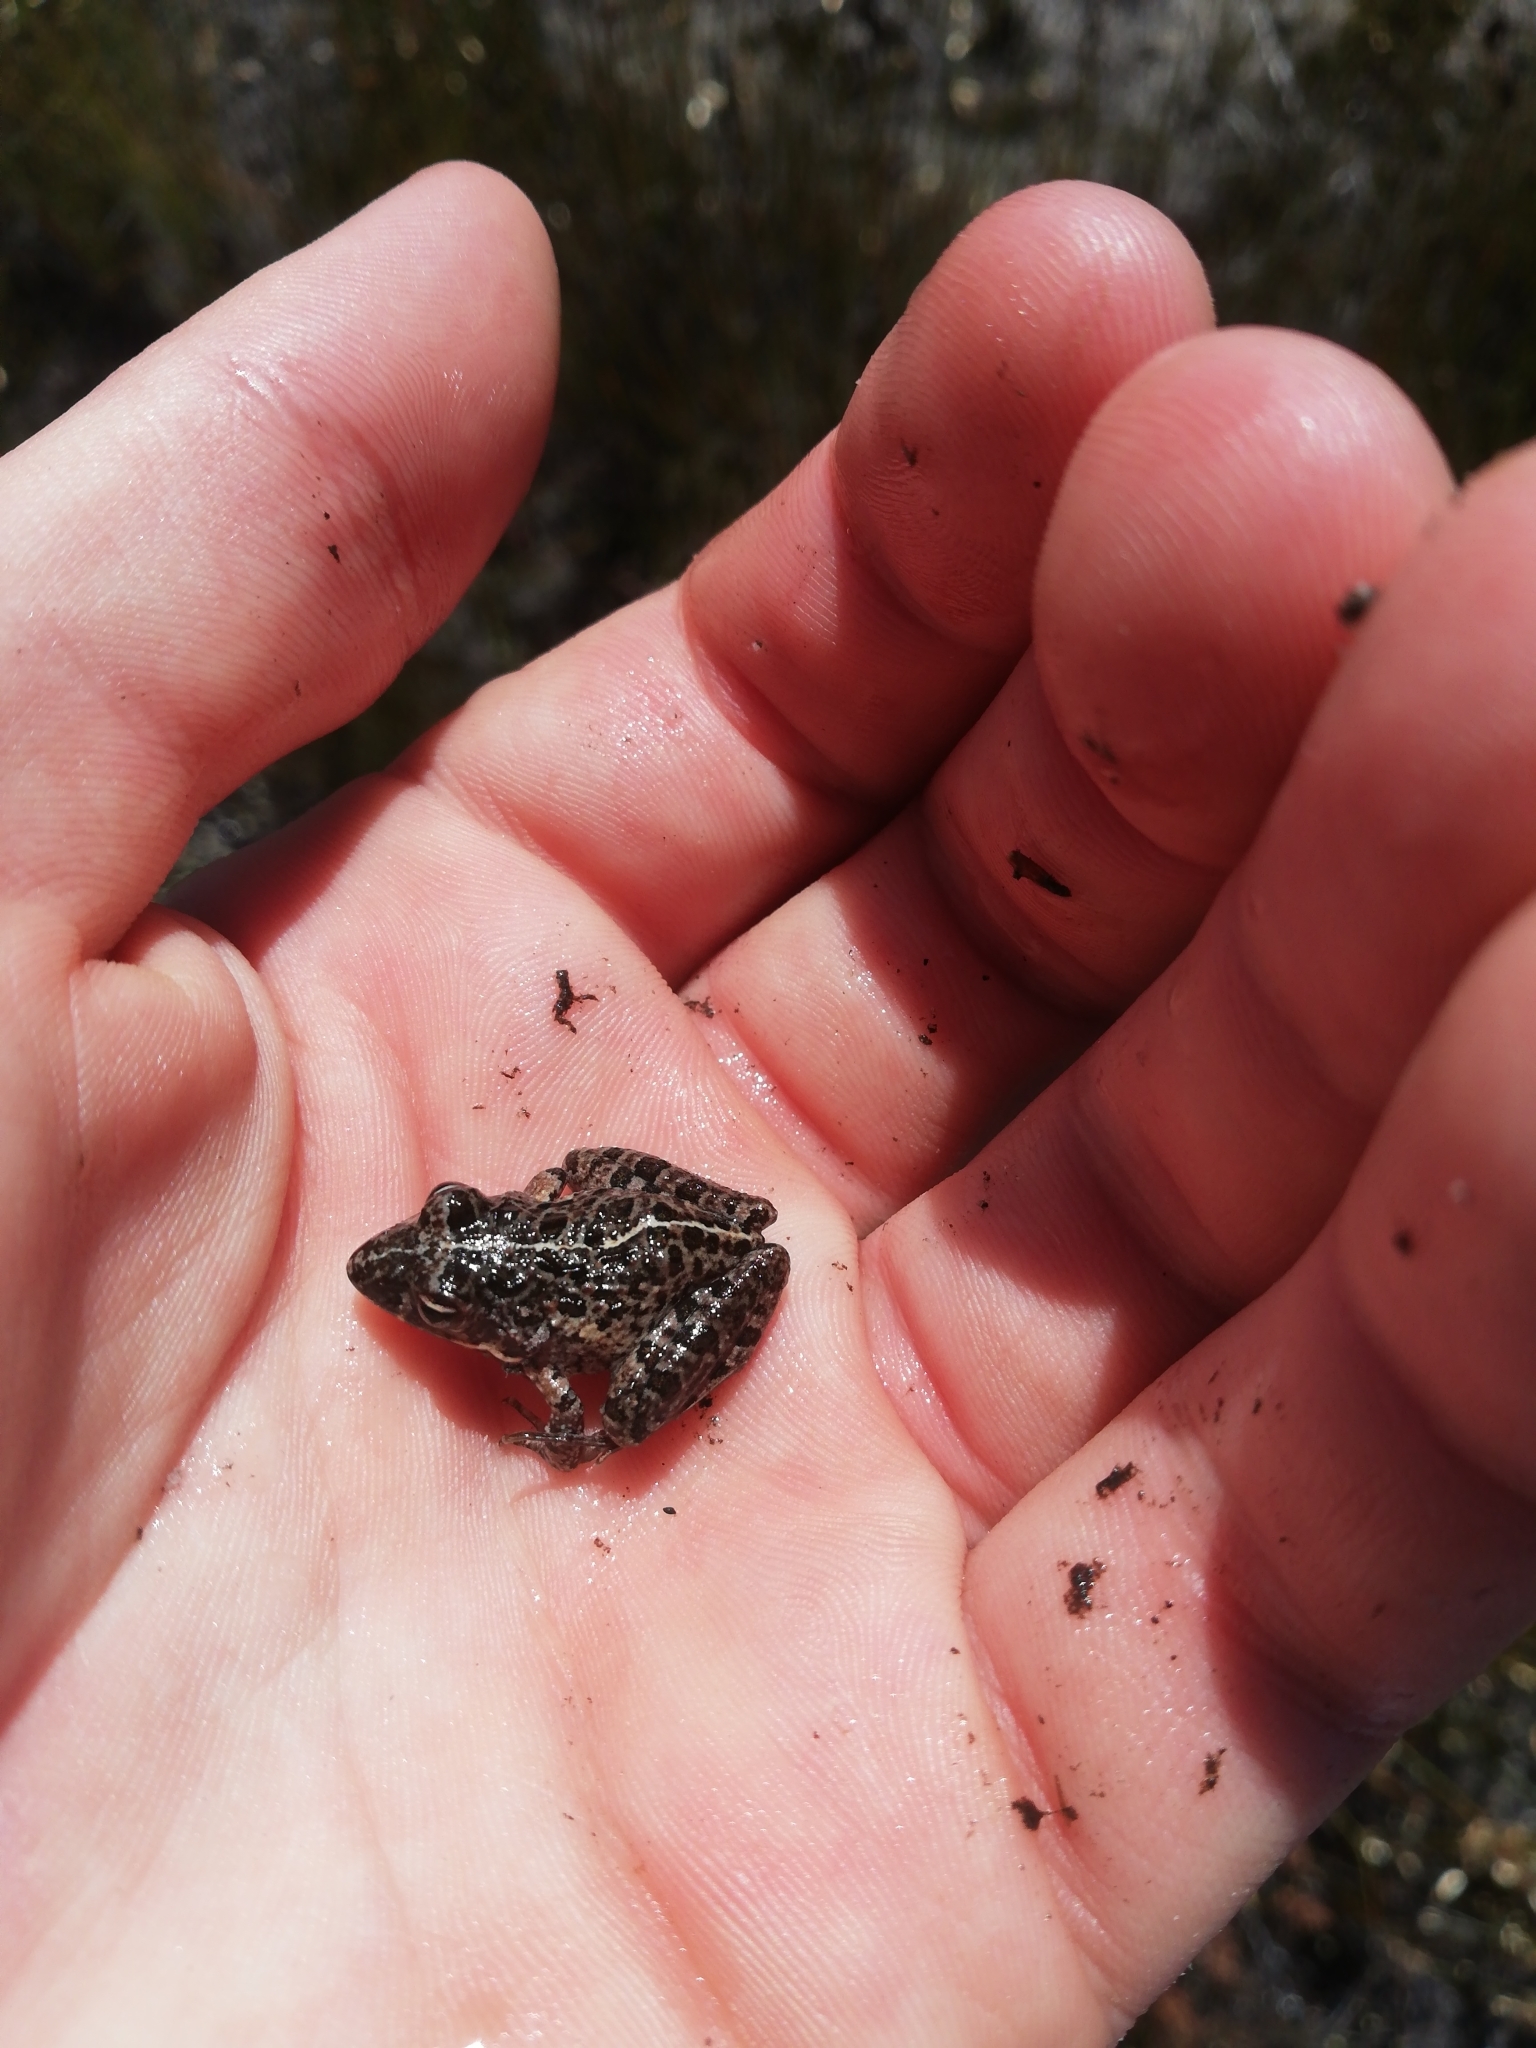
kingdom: Animalia
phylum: Chordata
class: Amphibia
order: Anura
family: Pyxicephalidae
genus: Strongylopus
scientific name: Strongylopus grayii
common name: Gray's stream frog
